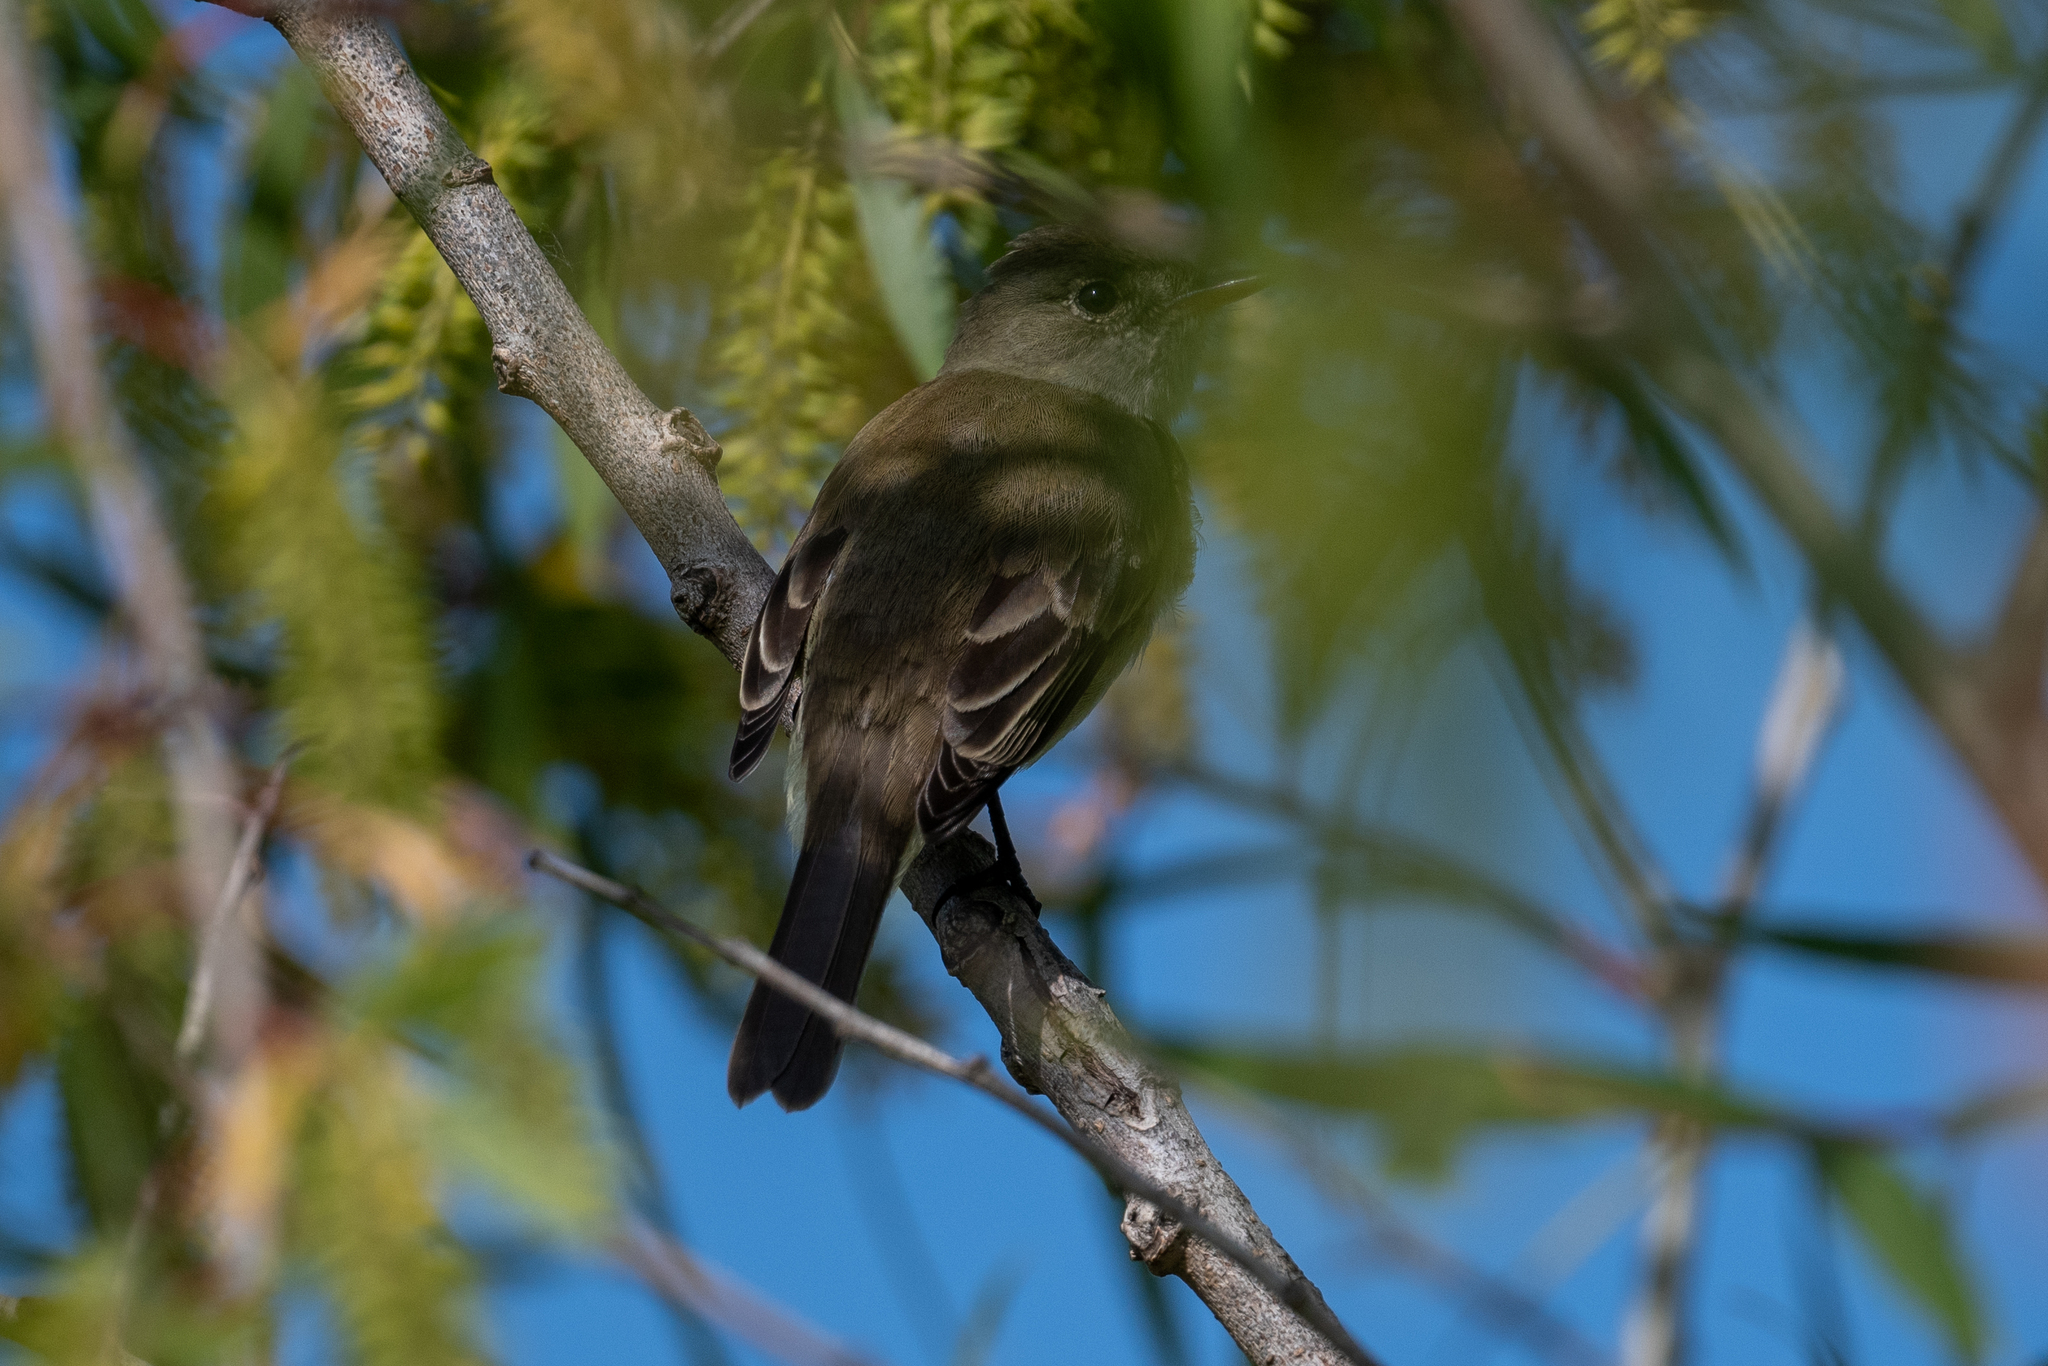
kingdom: Animalia
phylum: Chordata
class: Aves
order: Passeriformes
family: Tyrannidae
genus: Empidonax
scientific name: Empidonax traillii
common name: Willow flycatcher
